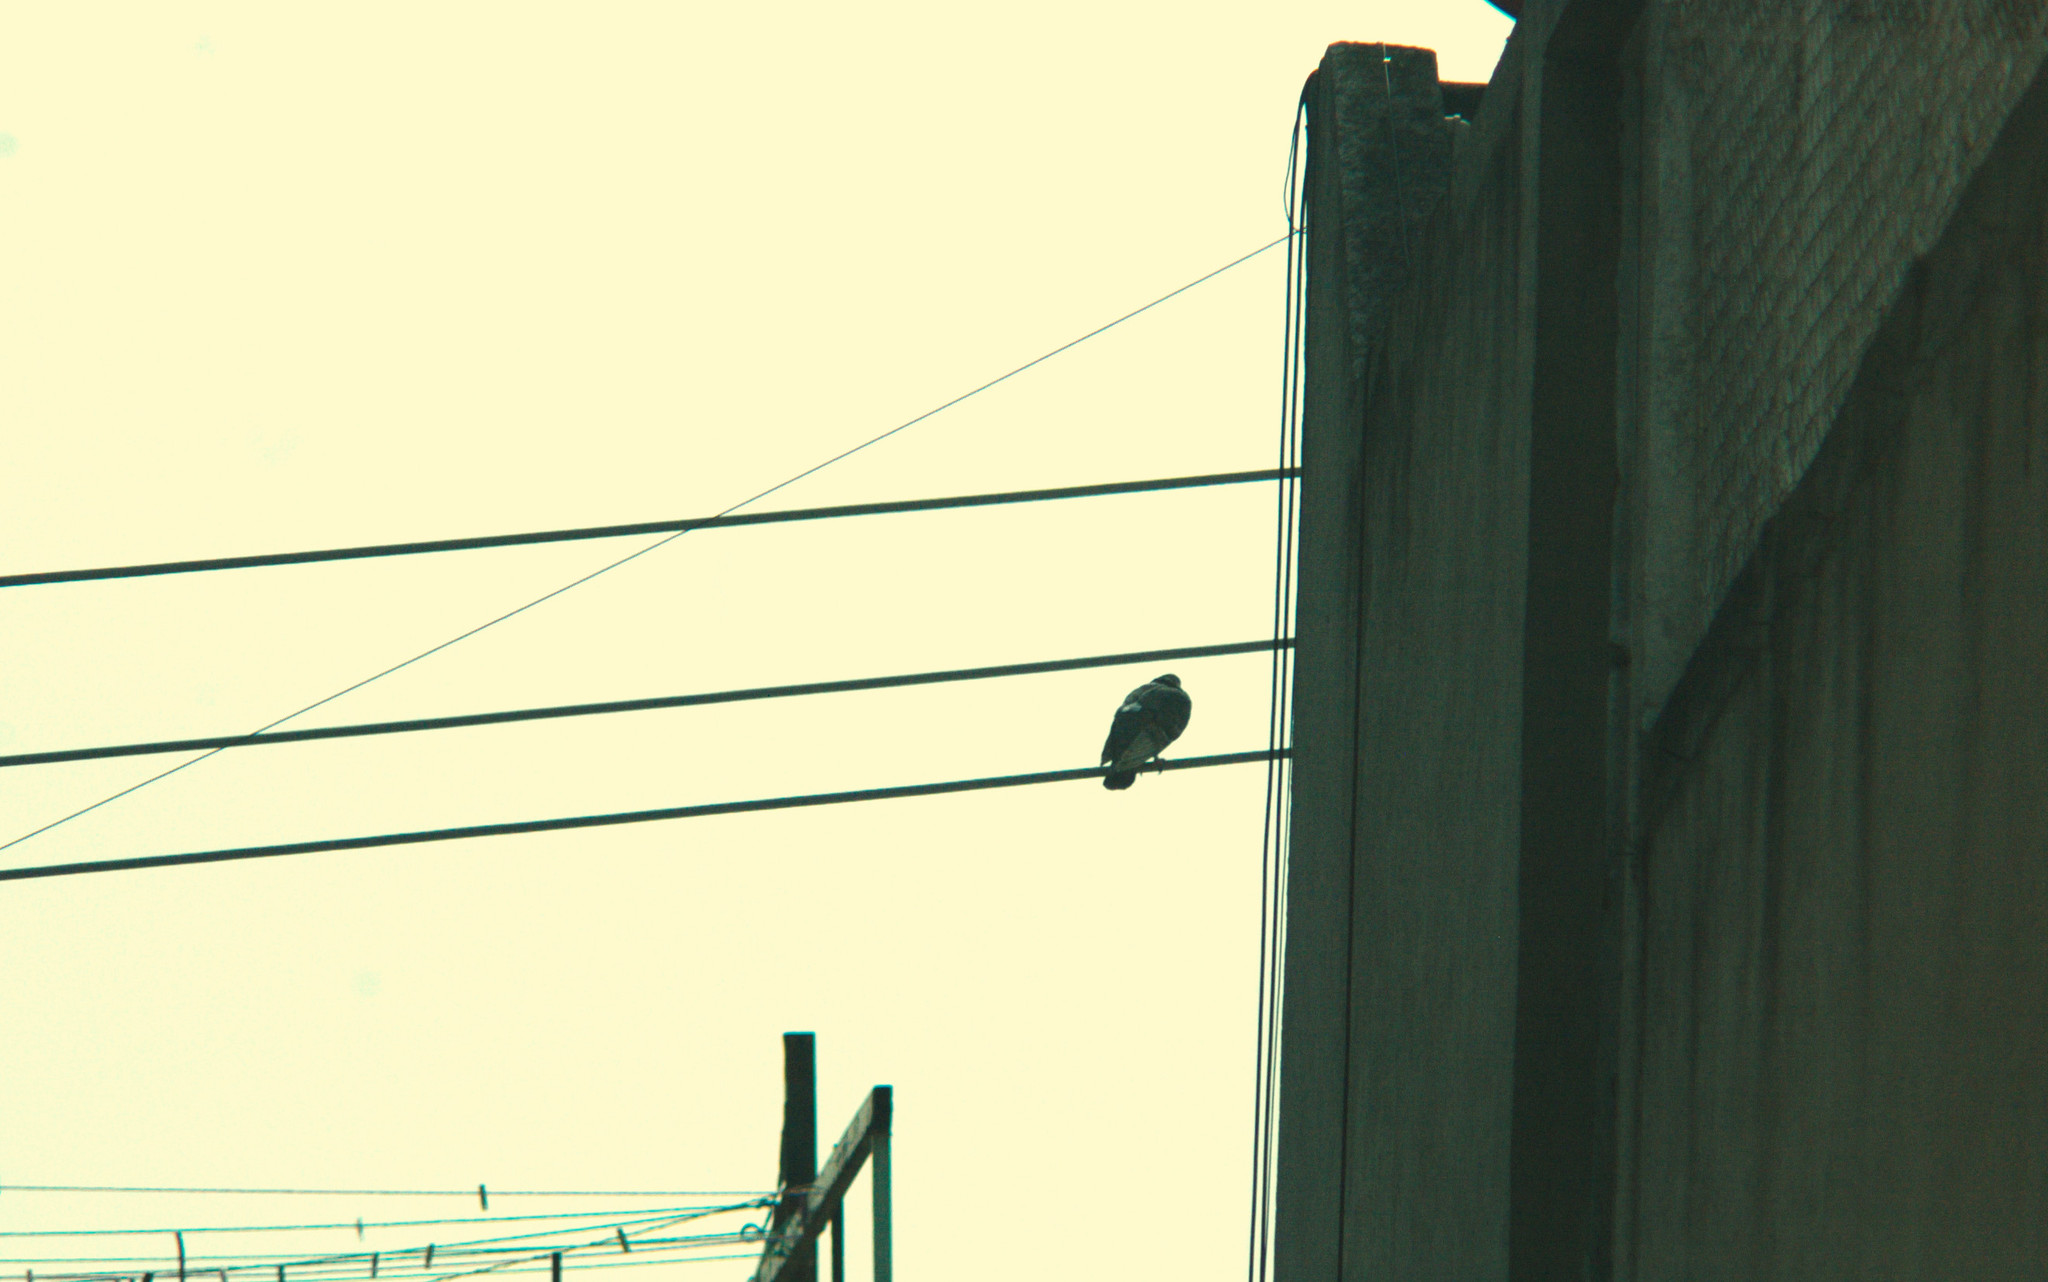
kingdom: Animalia
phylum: Chordata
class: Aves
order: Columbiformes
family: Columbidae
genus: Columba
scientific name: Columba livia
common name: Rock pigeon
